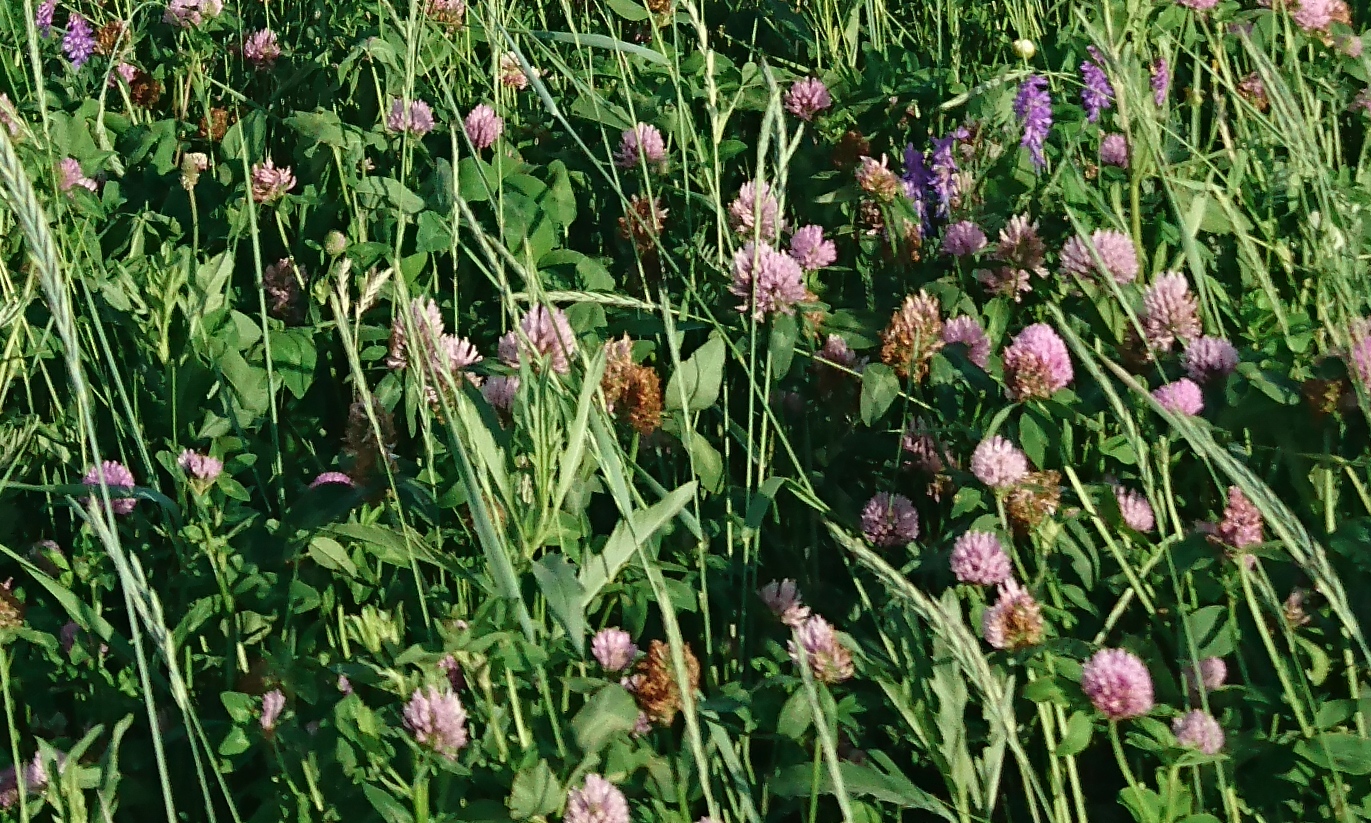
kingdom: Plantae
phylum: Tracheophyta
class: Magnoliopsida
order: Fabales
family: Fabaceae
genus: Trifolium
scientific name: Trifolium pratense
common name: Red clover
